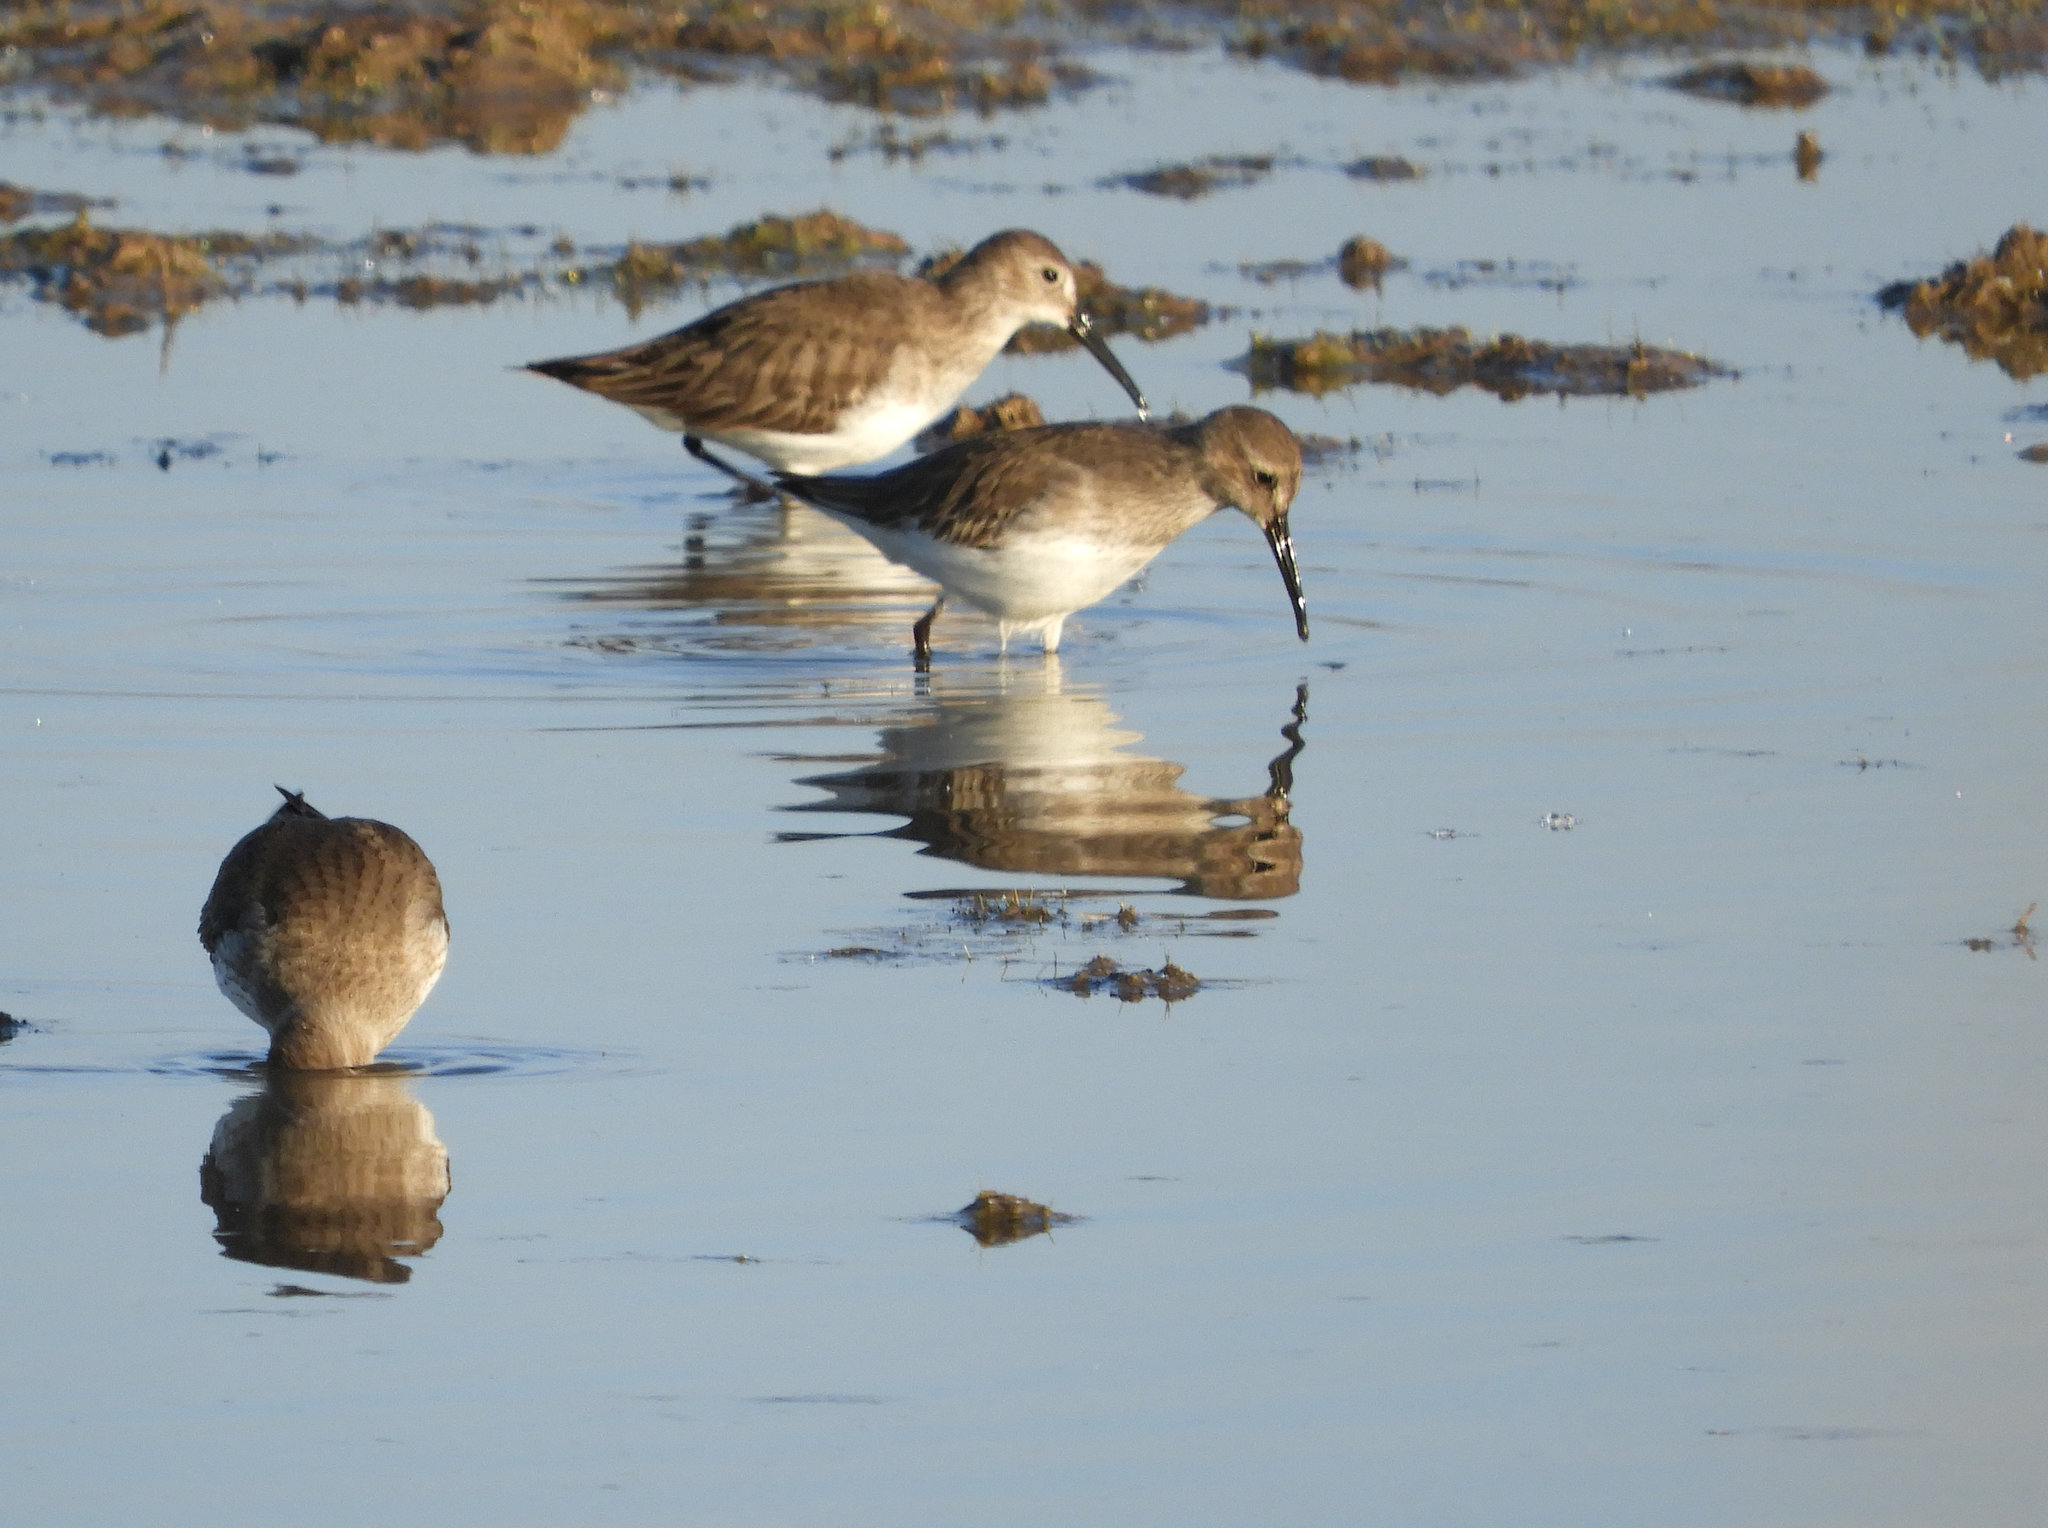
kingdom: Animalia
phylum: Chordata
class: Aves
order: Charadriiformes
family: Scolopacidae
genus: Calidris
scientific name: Calidris alpina
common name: Dunlin
